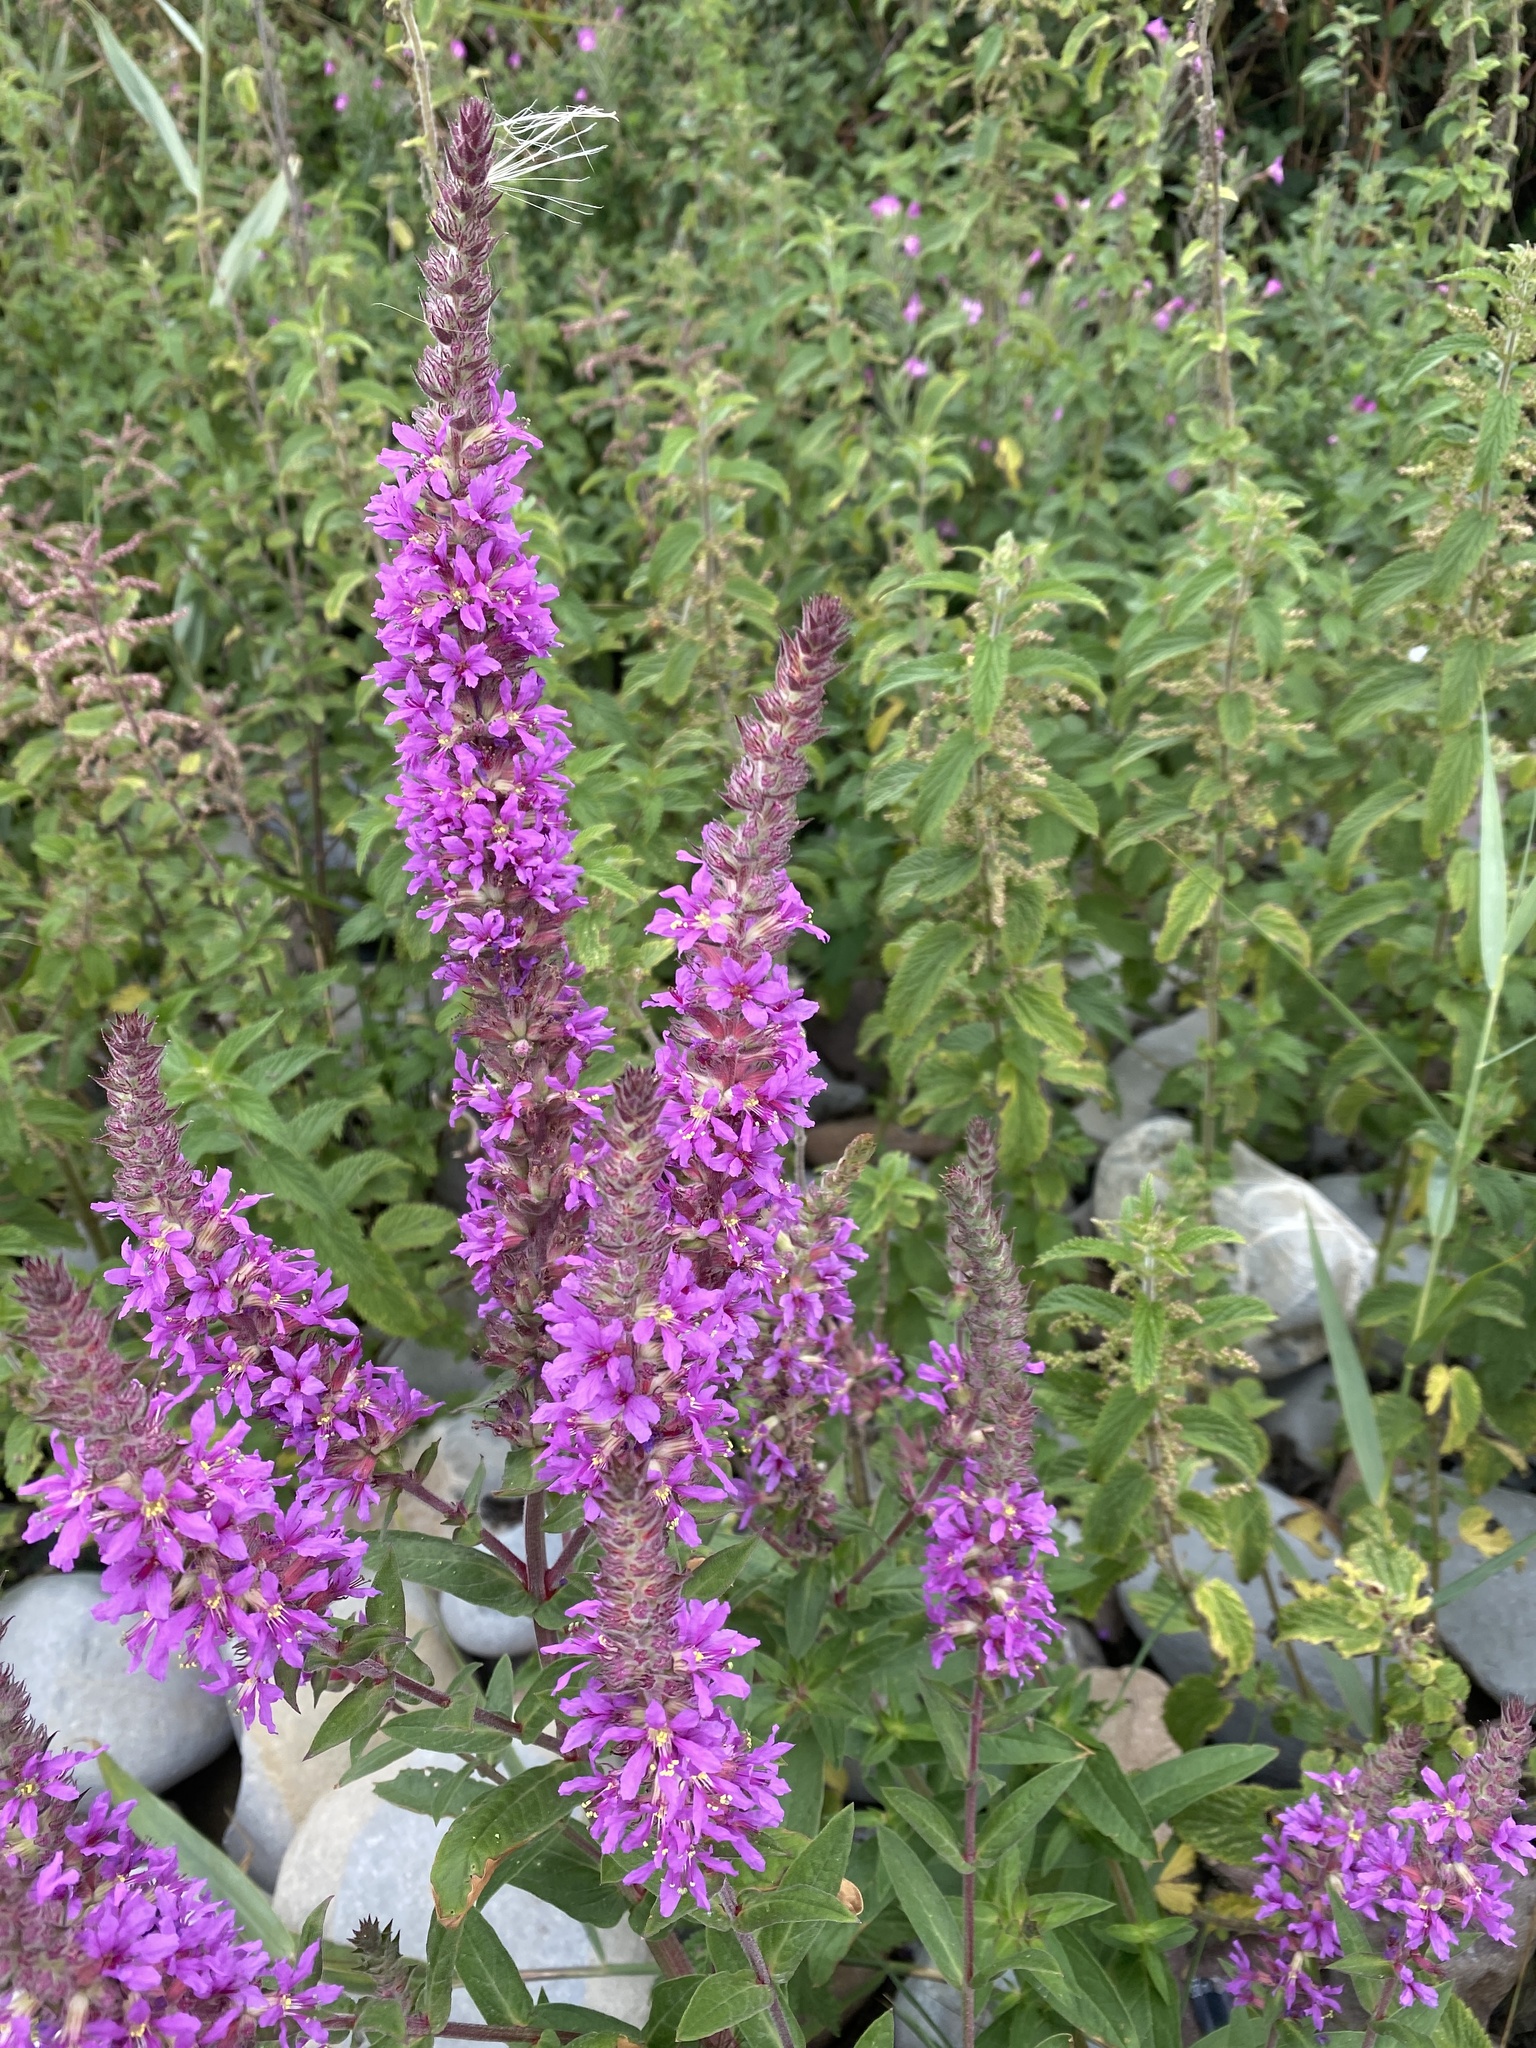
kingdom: Plantae
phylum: Tracheophyta
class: Magnoliopsida
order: Myrtales
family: Lythraceae
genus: Lythrum
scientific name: Lythrum salicaria
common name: Purple loosestrife
